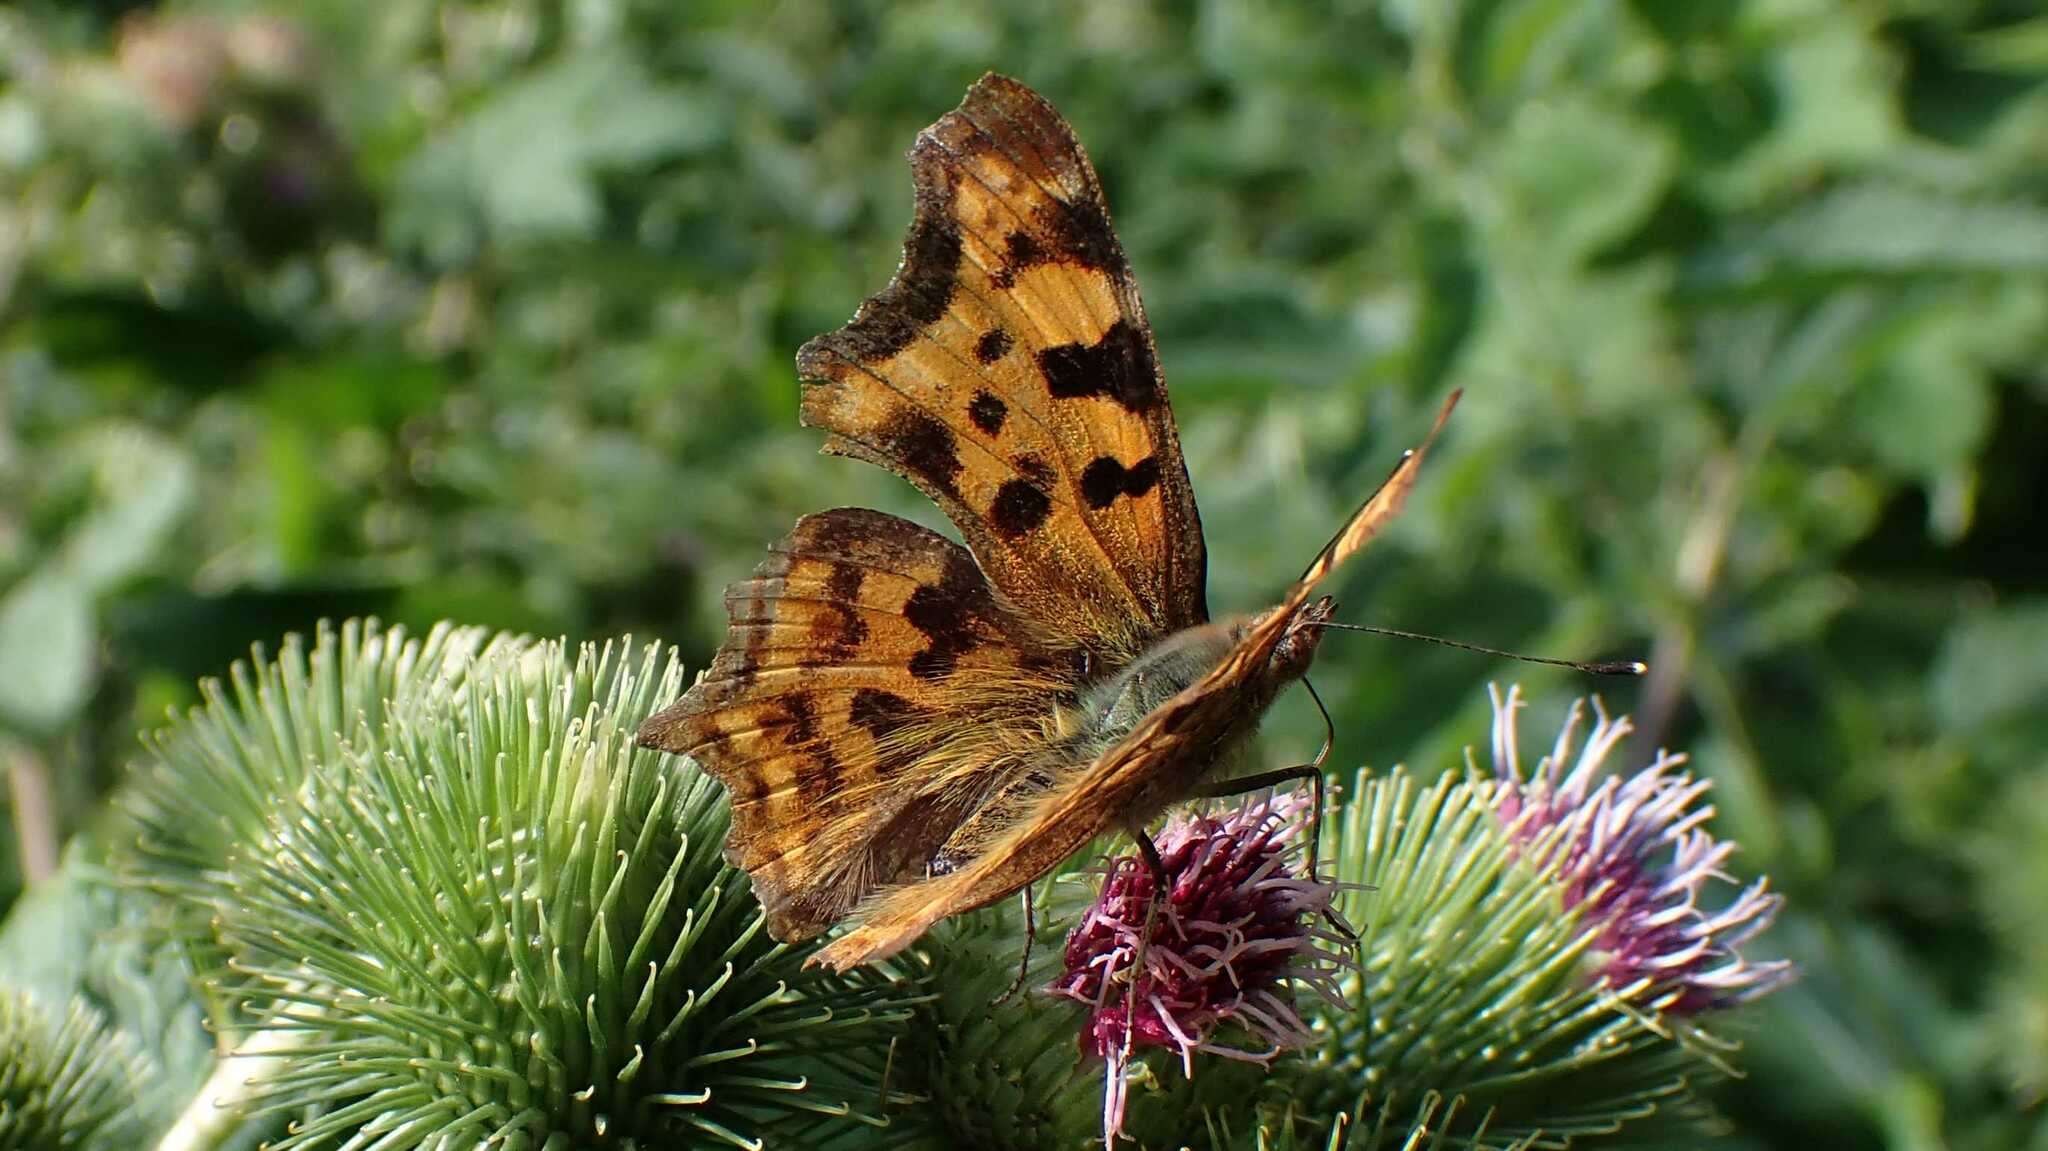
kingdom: Animalia
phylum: Arthropoda
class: Insecta
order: Lepidoptera
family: Nymphalidae
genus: Polygonia
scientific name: Polygonia c-album
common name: Comma
